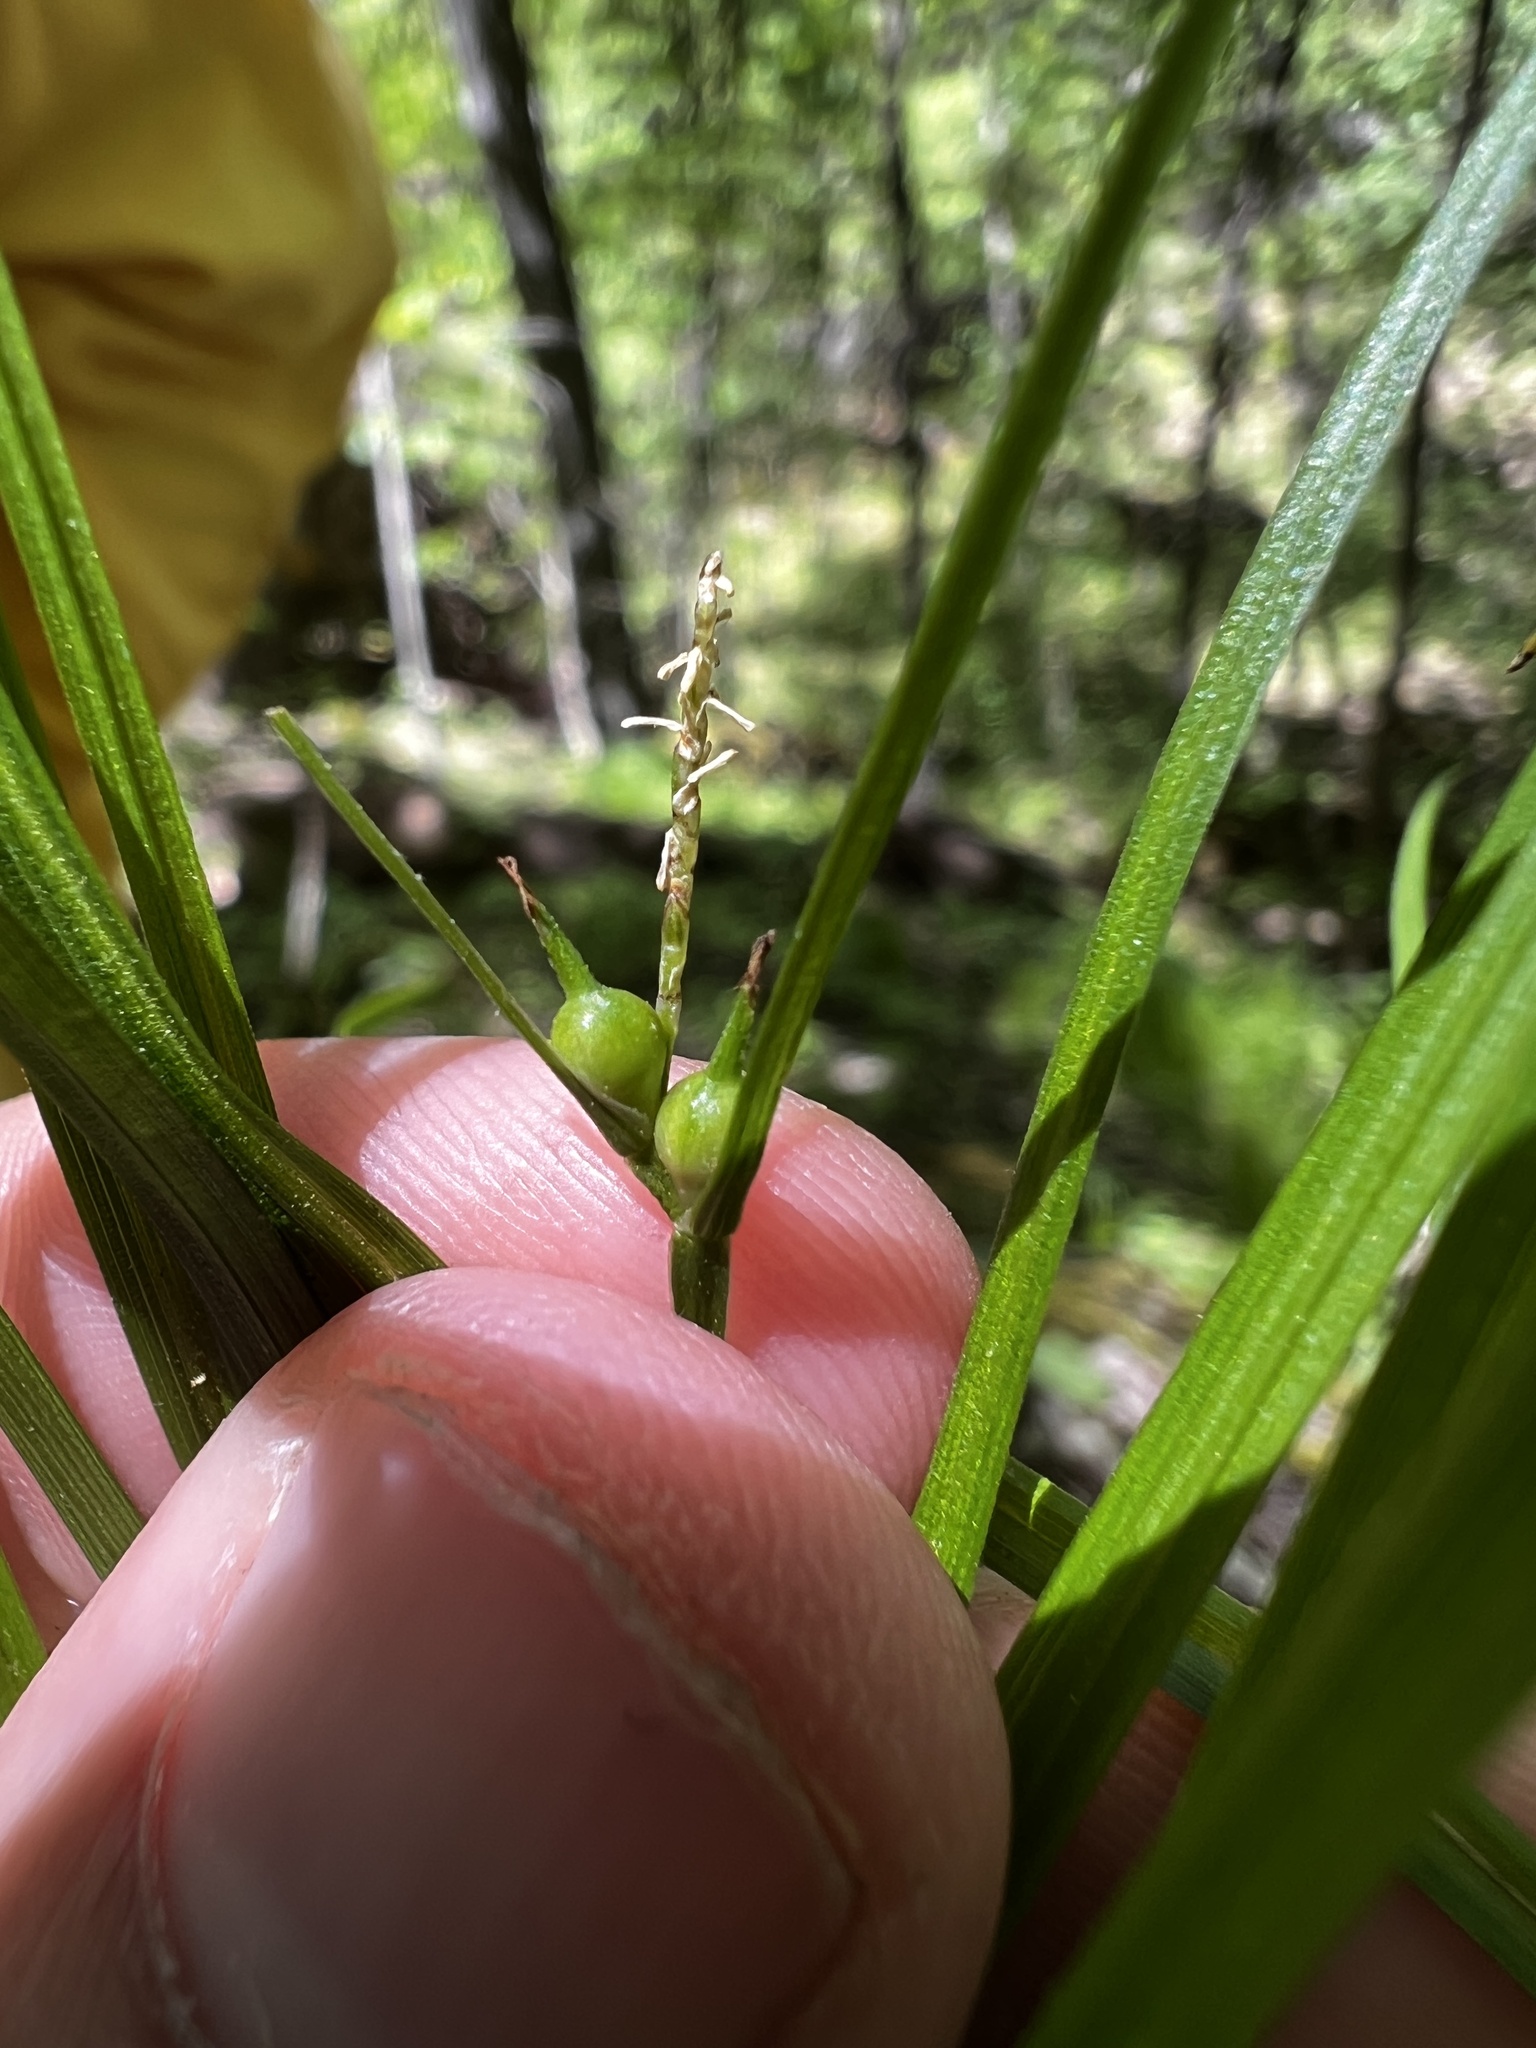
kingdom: Plantae
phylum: Tracheophyta
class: Liliopsida
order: Poales
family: Cyperaceae
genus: Carex
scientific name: Carex jamesii
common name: Grass sedge
